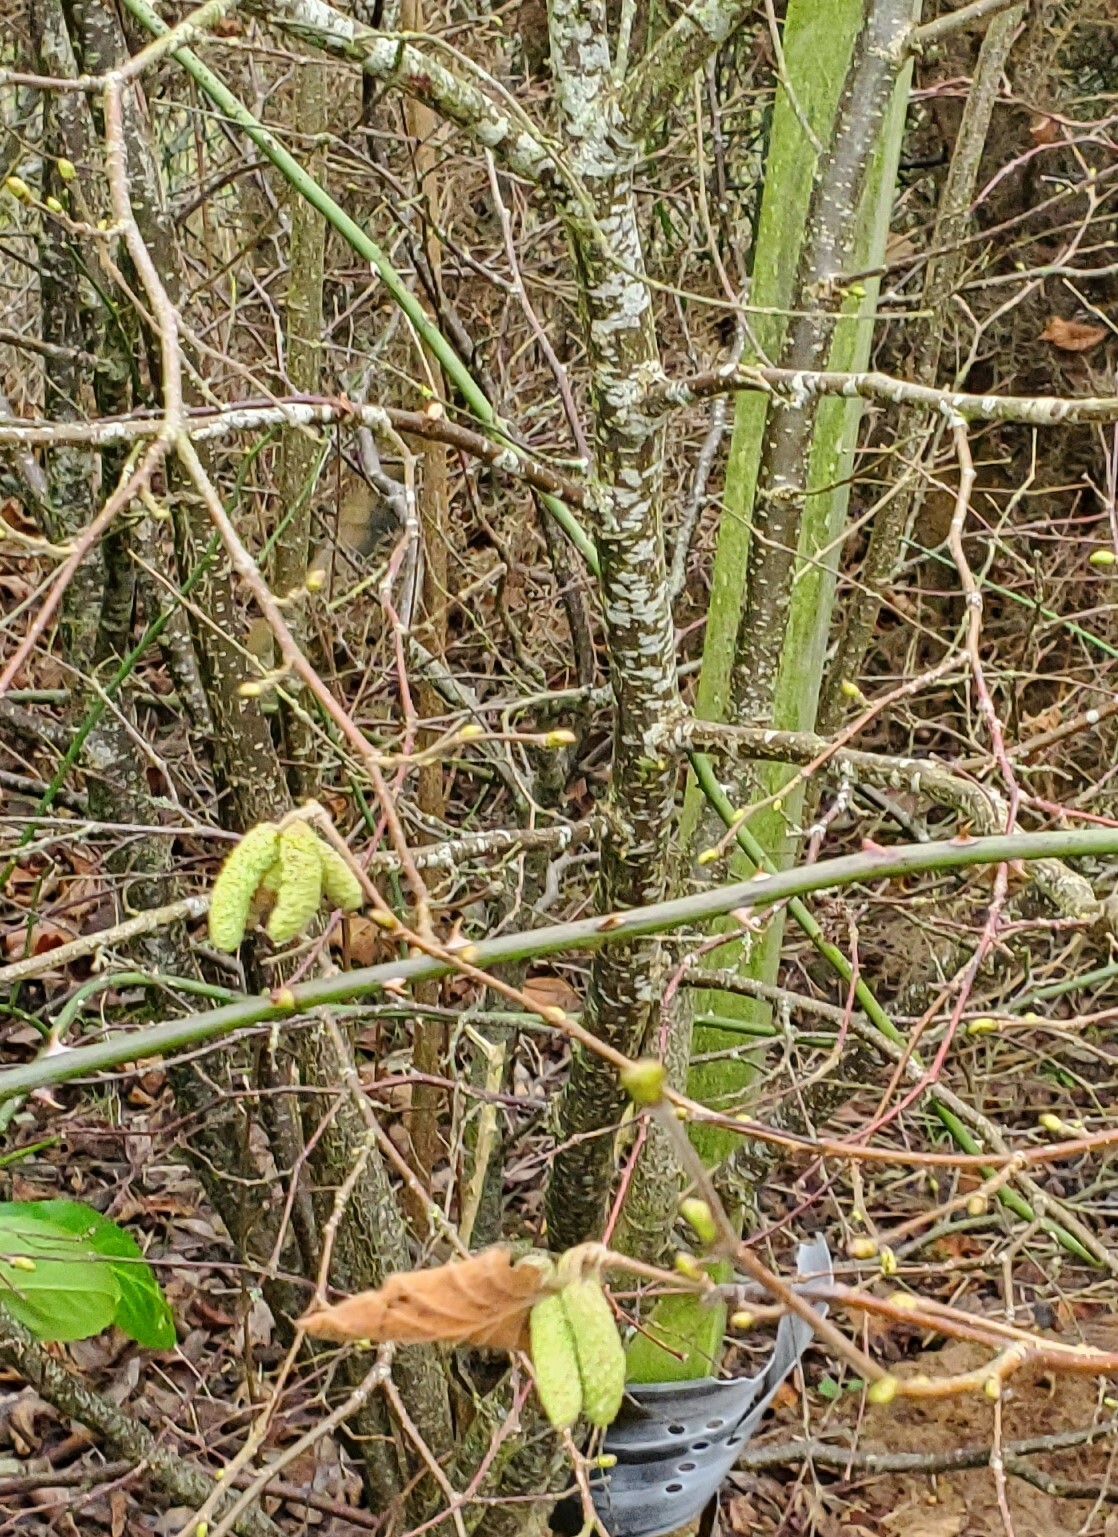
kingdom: Plantae
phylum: Tracheophyta
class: Magnoliopsida
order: Fagales
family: Betulaceae
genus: Corylus
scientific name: Corylus avellana
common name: European hazel
